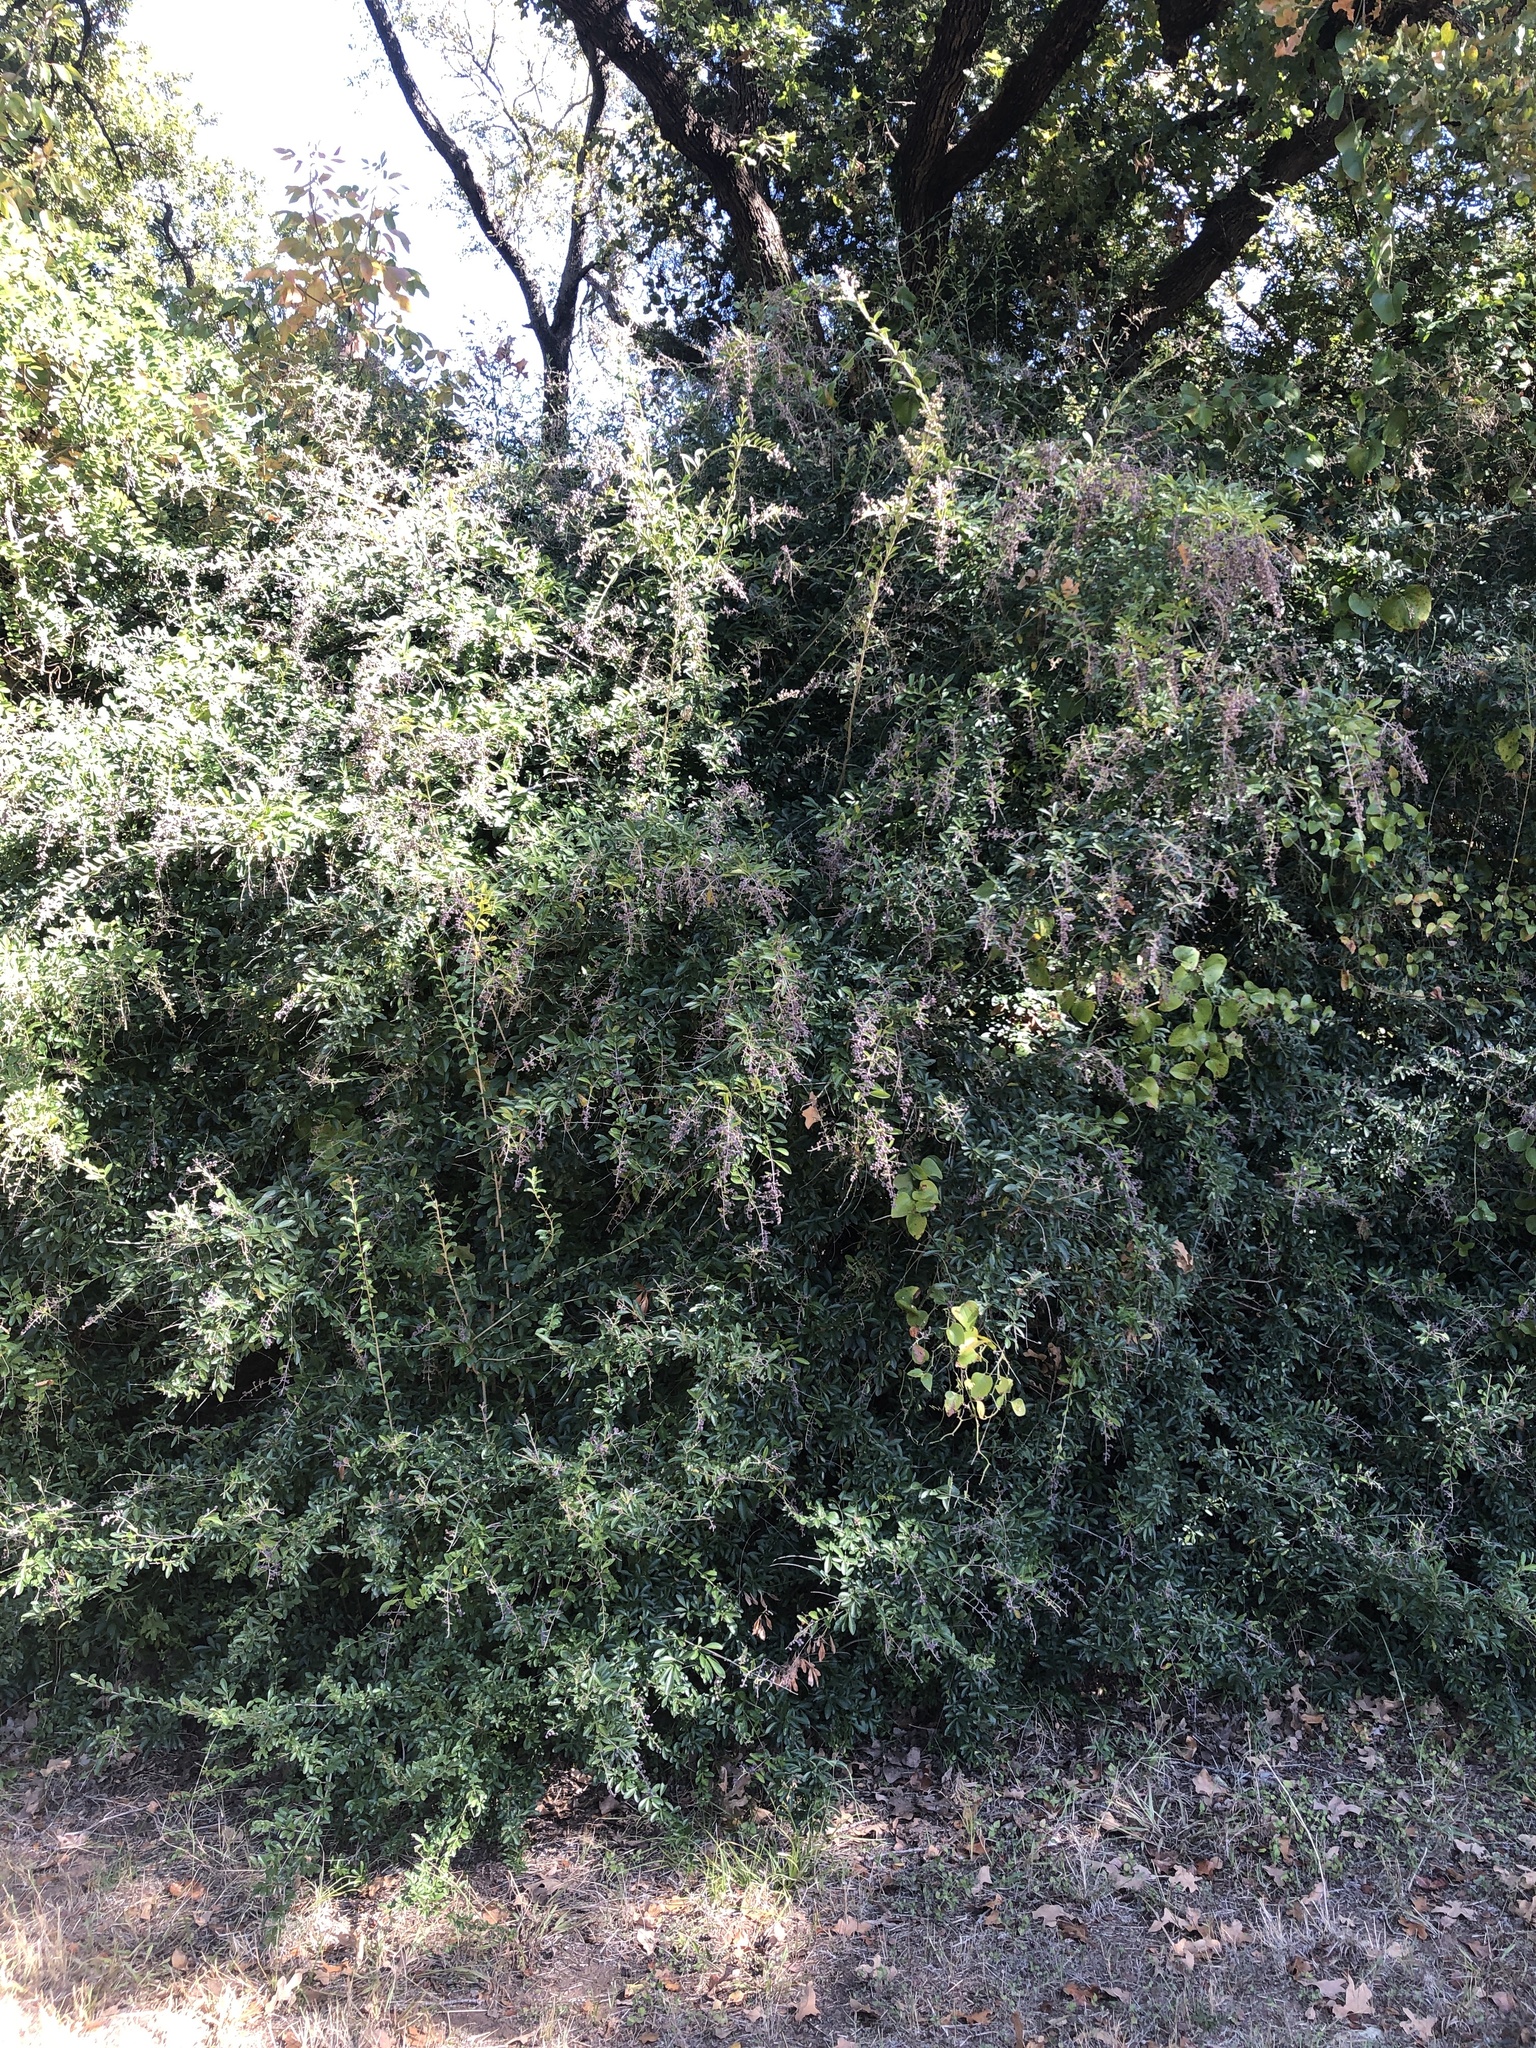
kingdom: Plantae
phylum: Tracheophyta
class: Magnoliopsida
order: Lamiales
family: Oleaceae
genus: Ligustrum
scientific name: Ligustrum quihoui
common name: Waxyleaf privet
